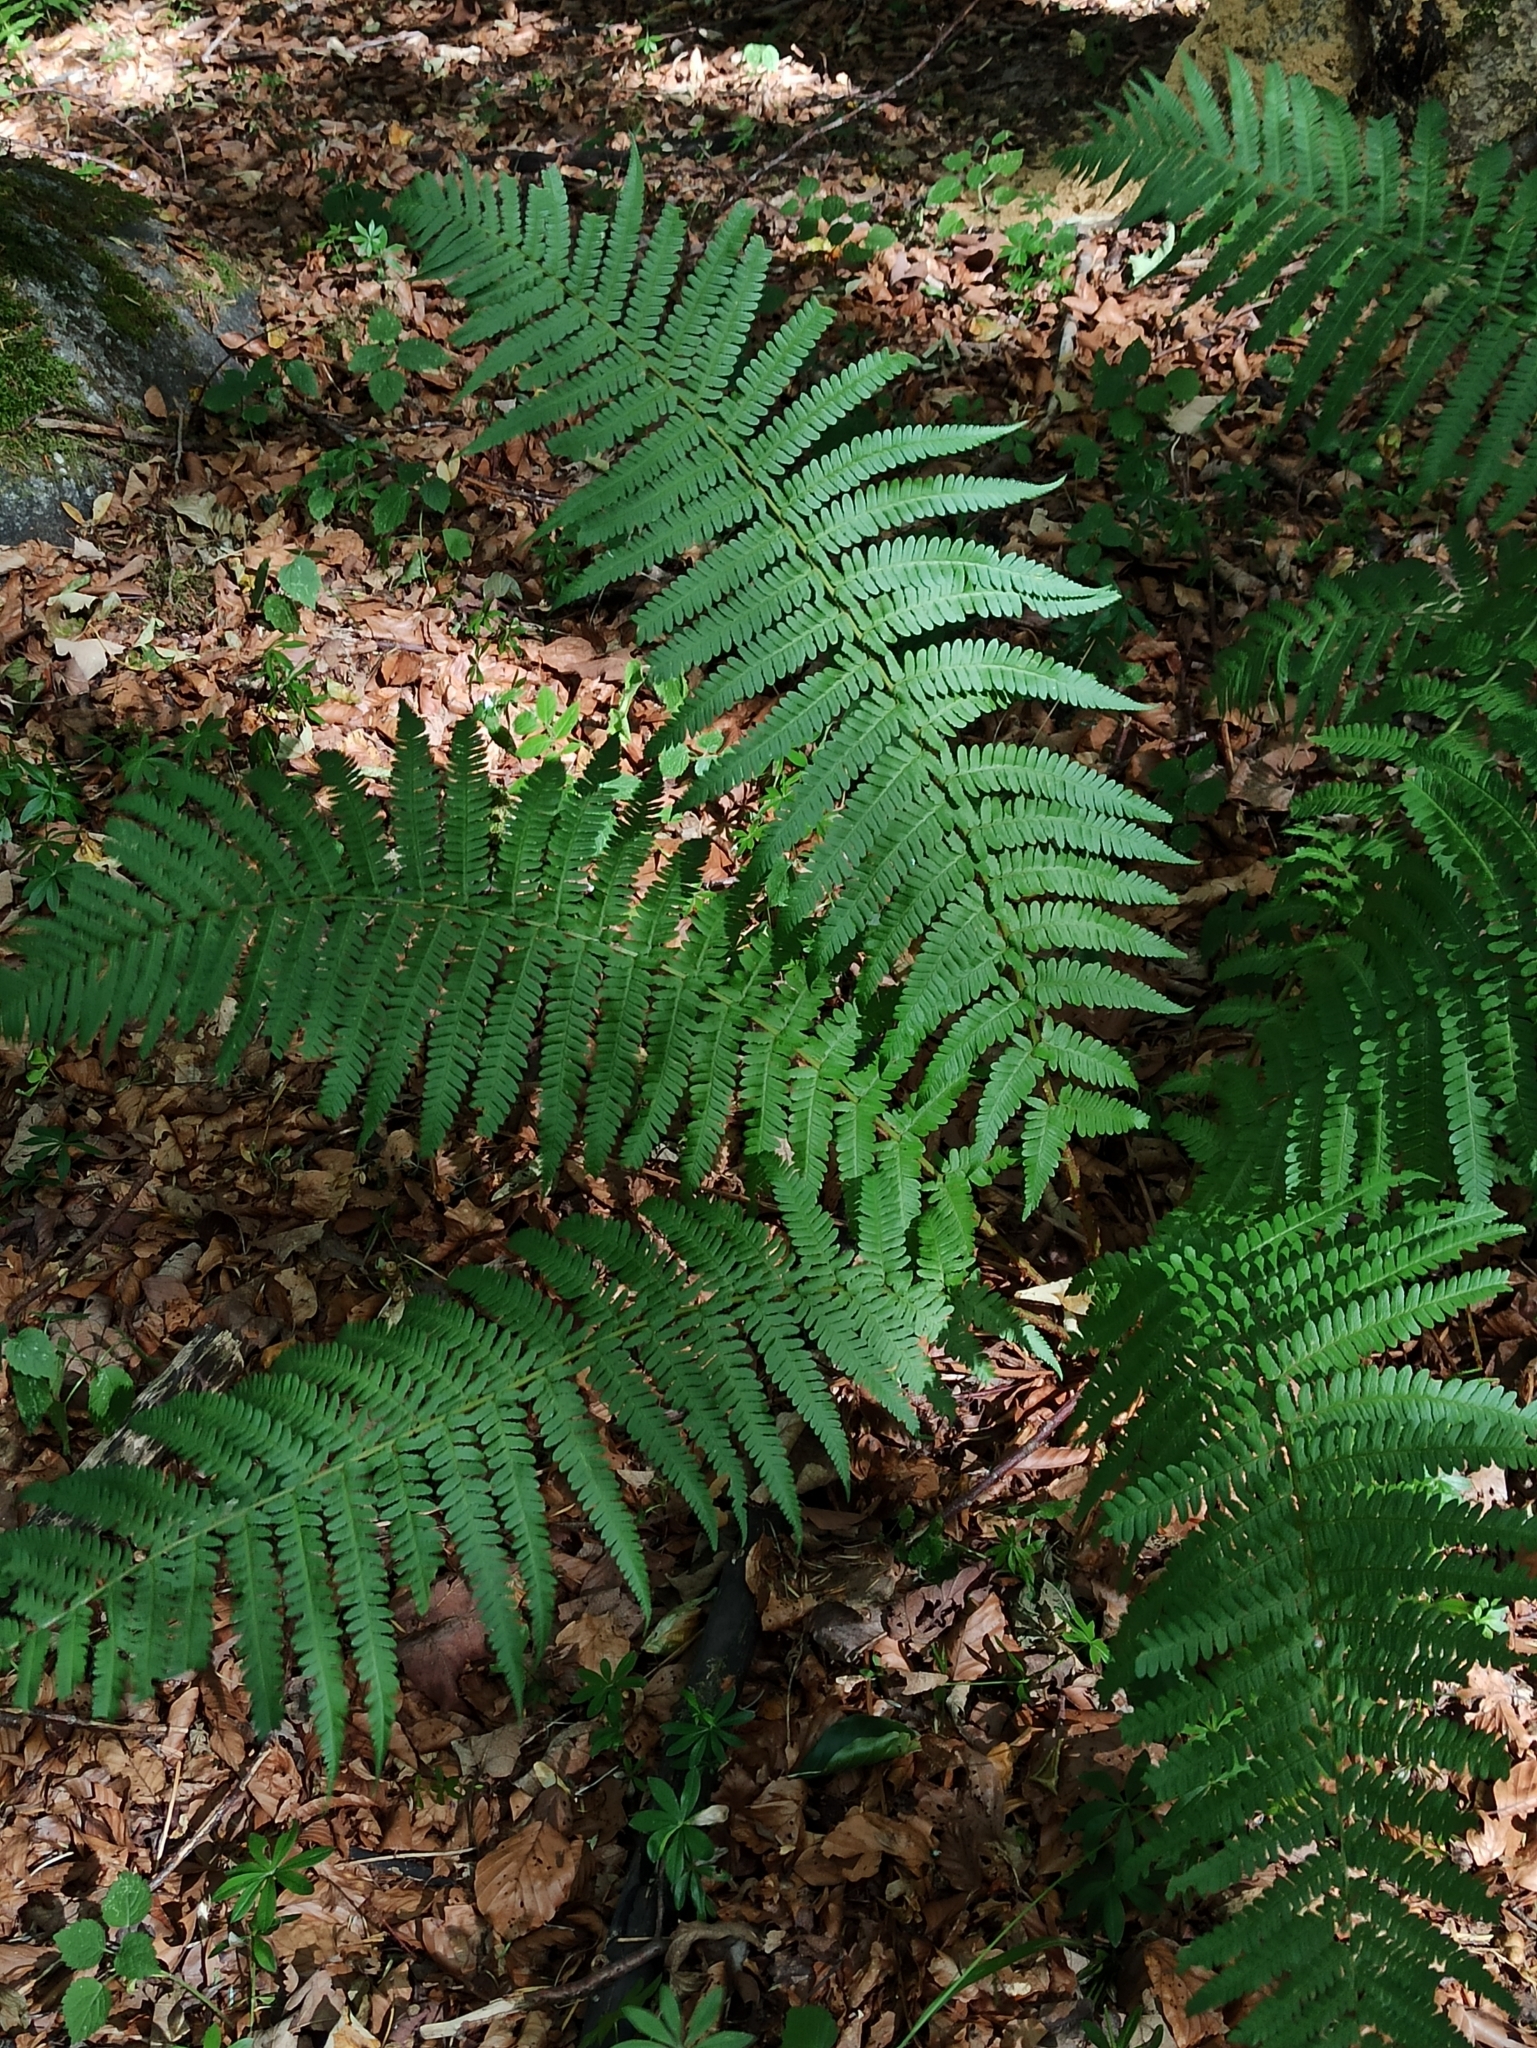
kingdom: Plantae
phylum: Tracheophyta
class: Polypodiopsida
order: Polypodiales
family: Dryopteridaceae
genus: Dryopteris
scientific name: Dryopteris filix-mas
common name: Male fern
